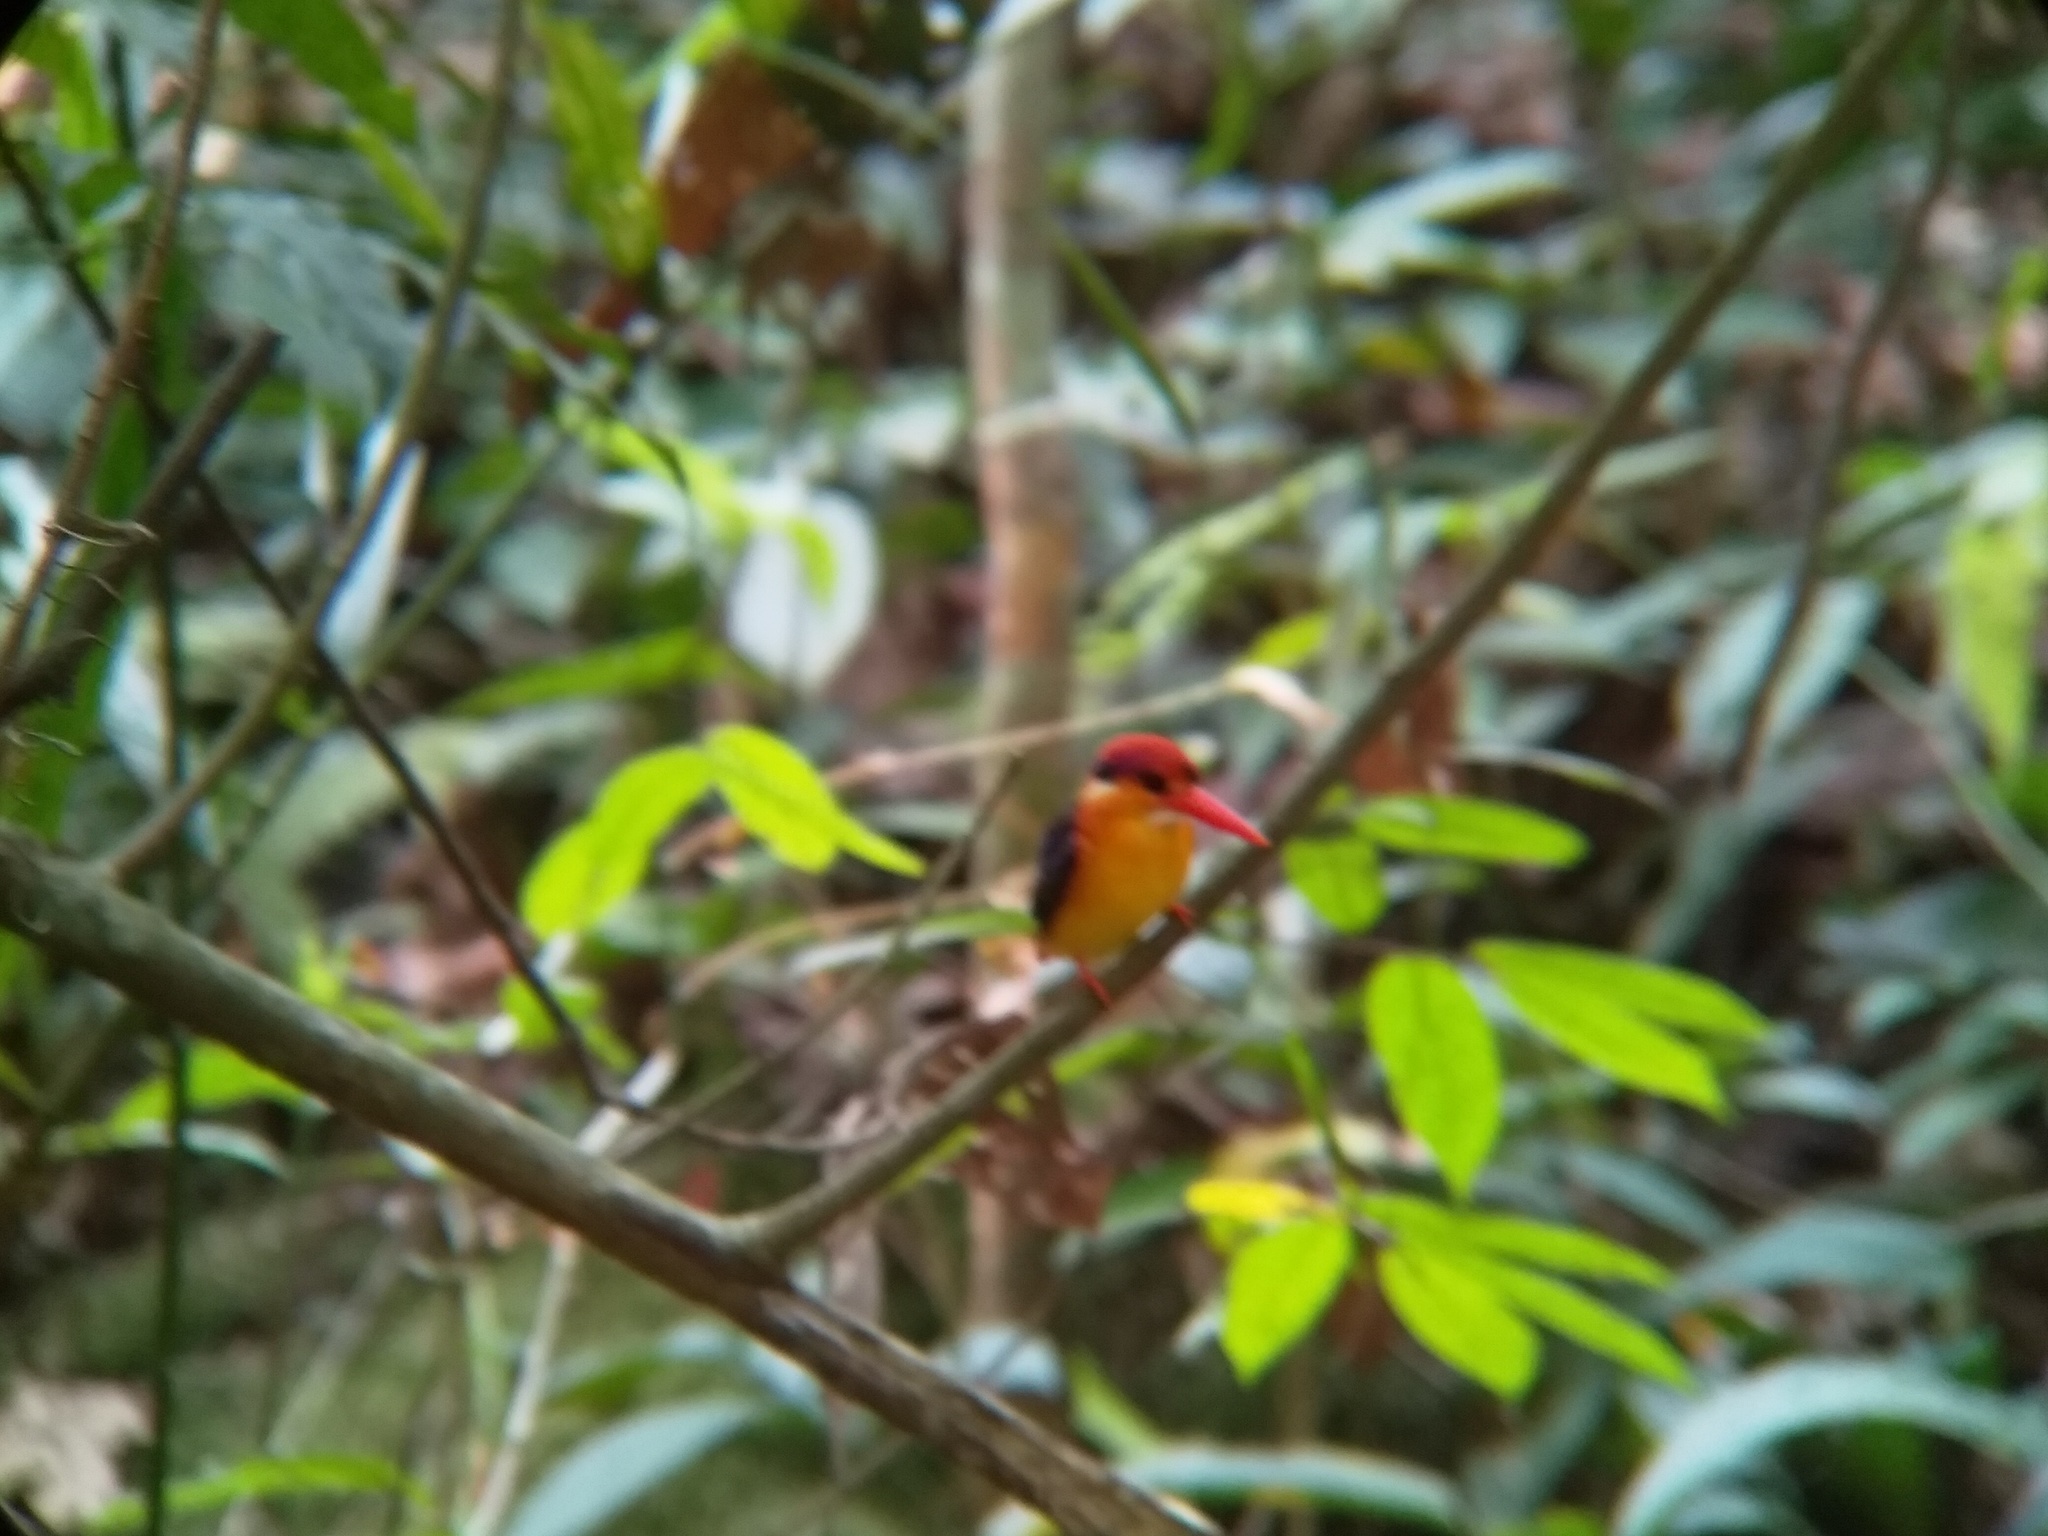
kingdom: Animalia
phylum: Chordata
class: Aves
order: Coraciiformes
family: Alcedinidae
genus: Ceyx
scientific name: Ceyx erithaca
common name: Oriental dwarf kingfisher
